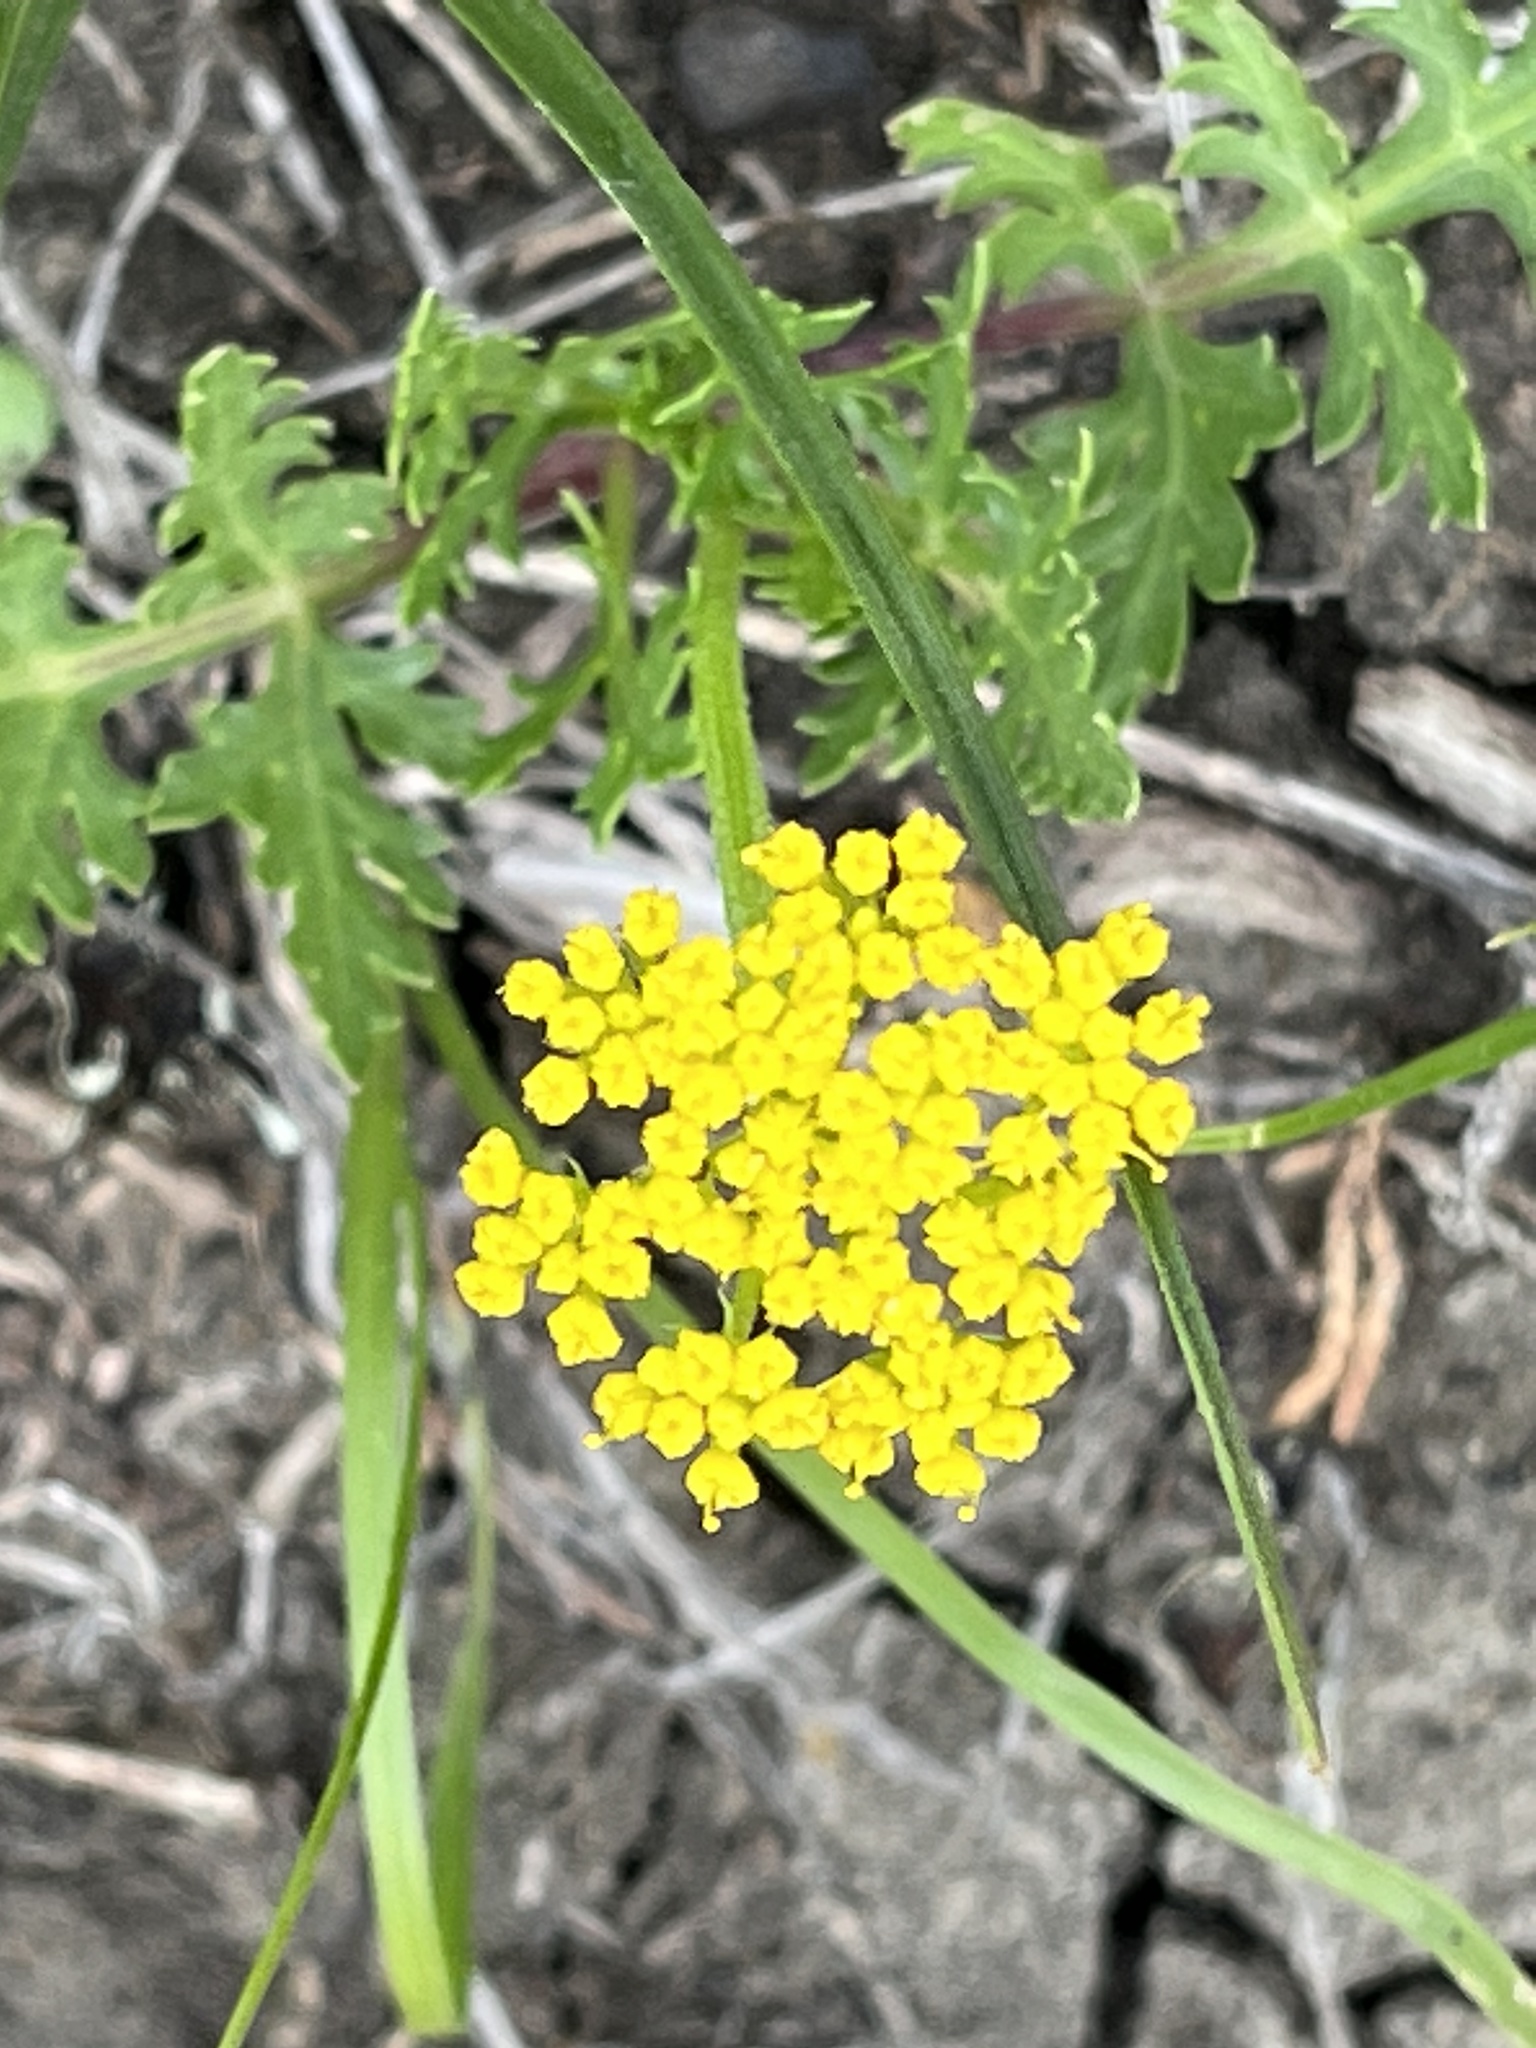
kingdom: Plantae
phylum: Tracheophyta
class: Magnoliopsida
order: Apiales
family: Apiaceae
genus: Musineon
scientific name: Musineon divaricatum
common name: Plains musineon
